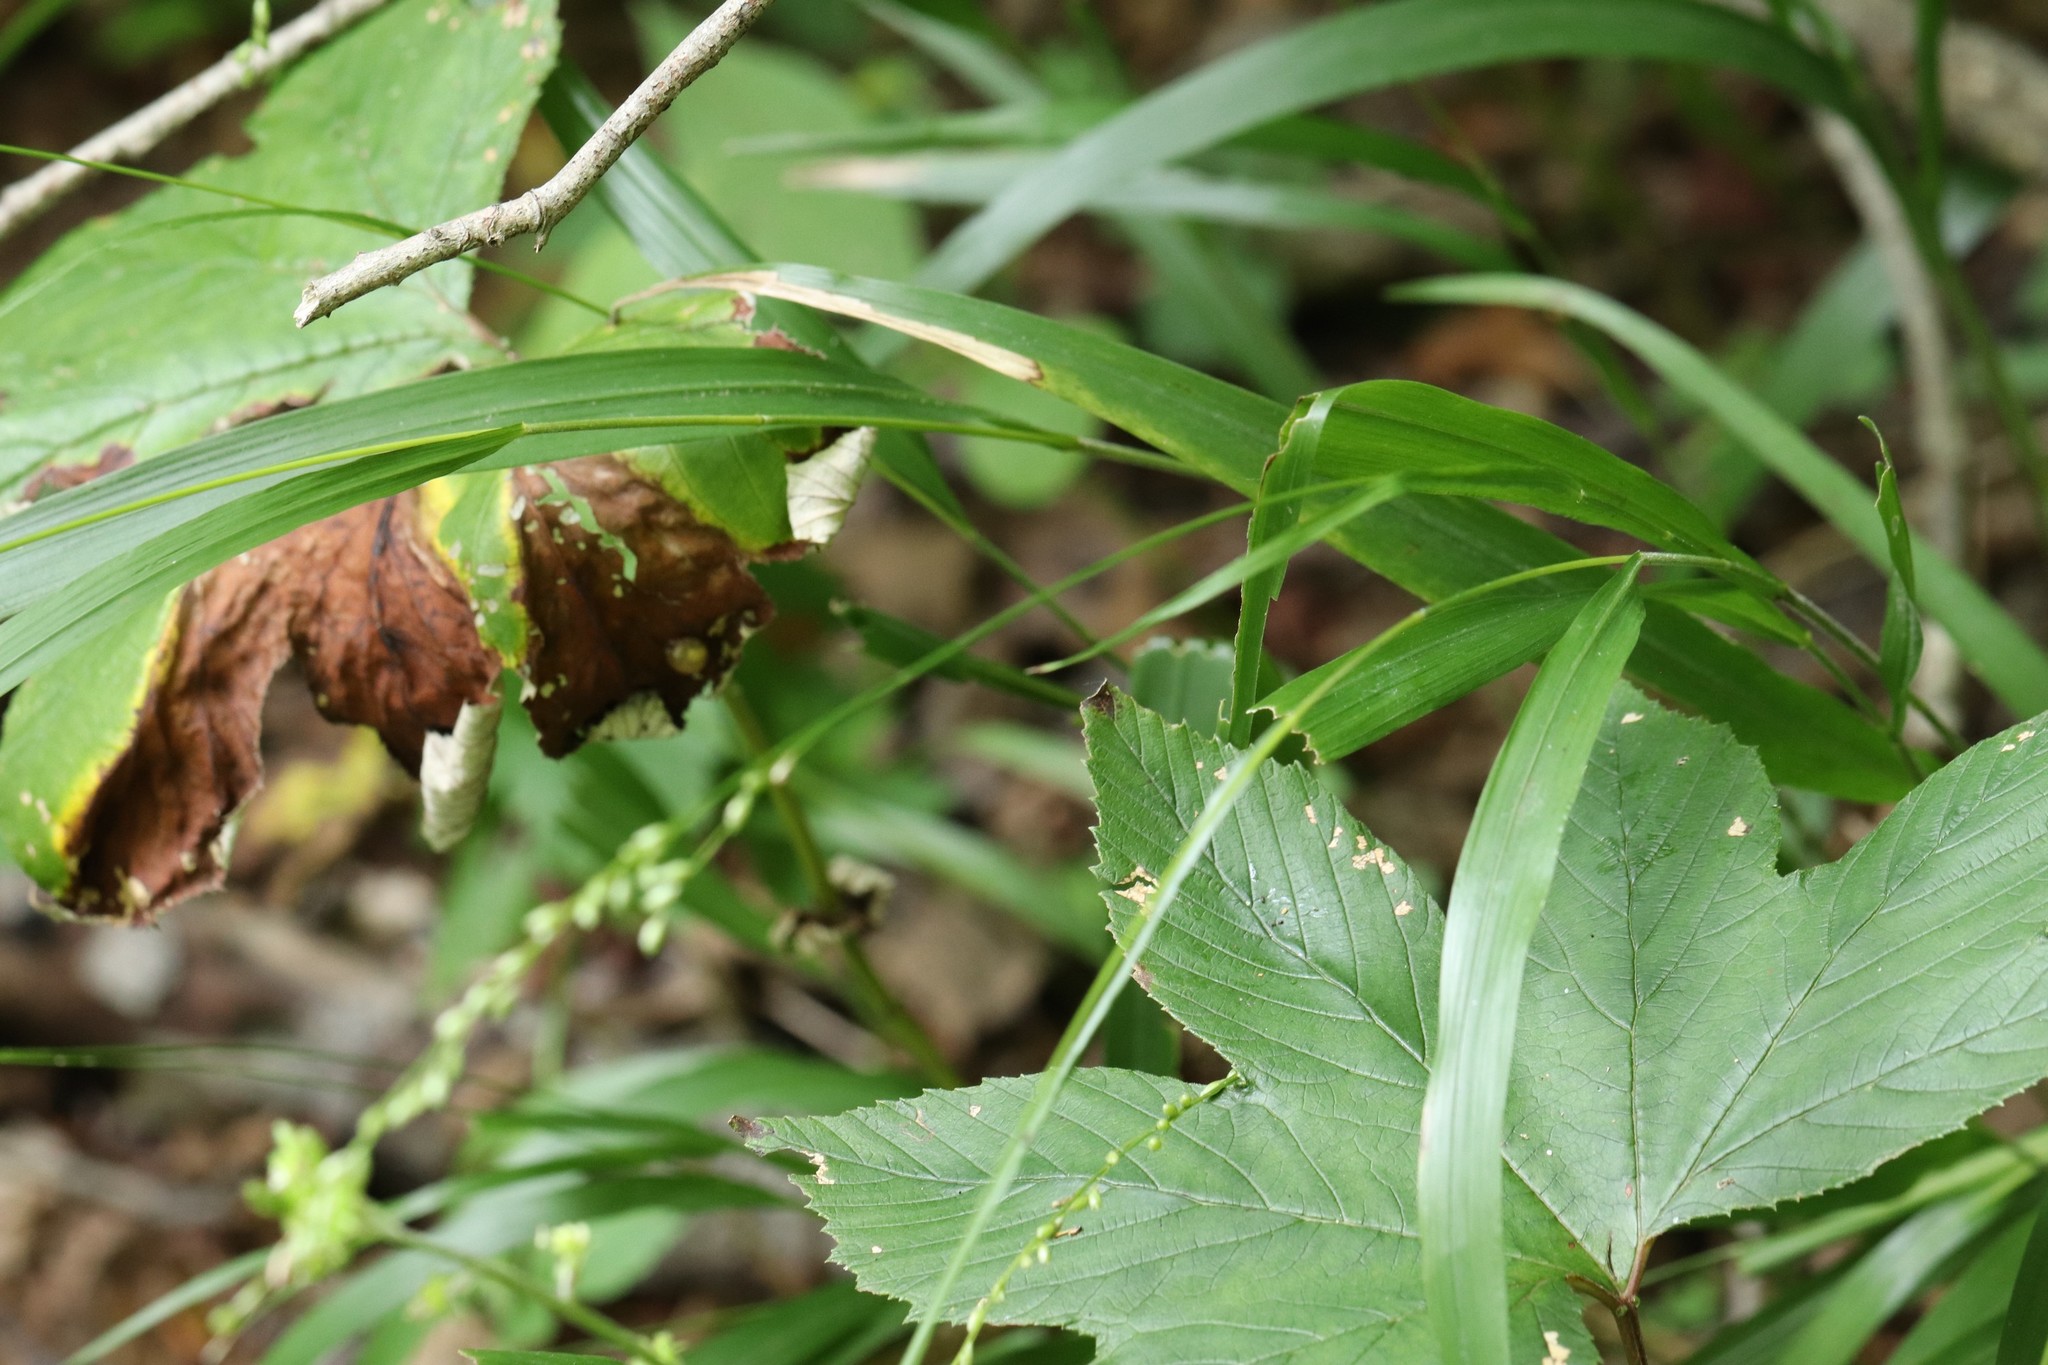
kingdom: Plantae
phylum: Tracheophyta
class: Liliopsida
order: Poales
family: Poaceae
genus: Diarrhena
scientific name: Diarrhena mandshurica
